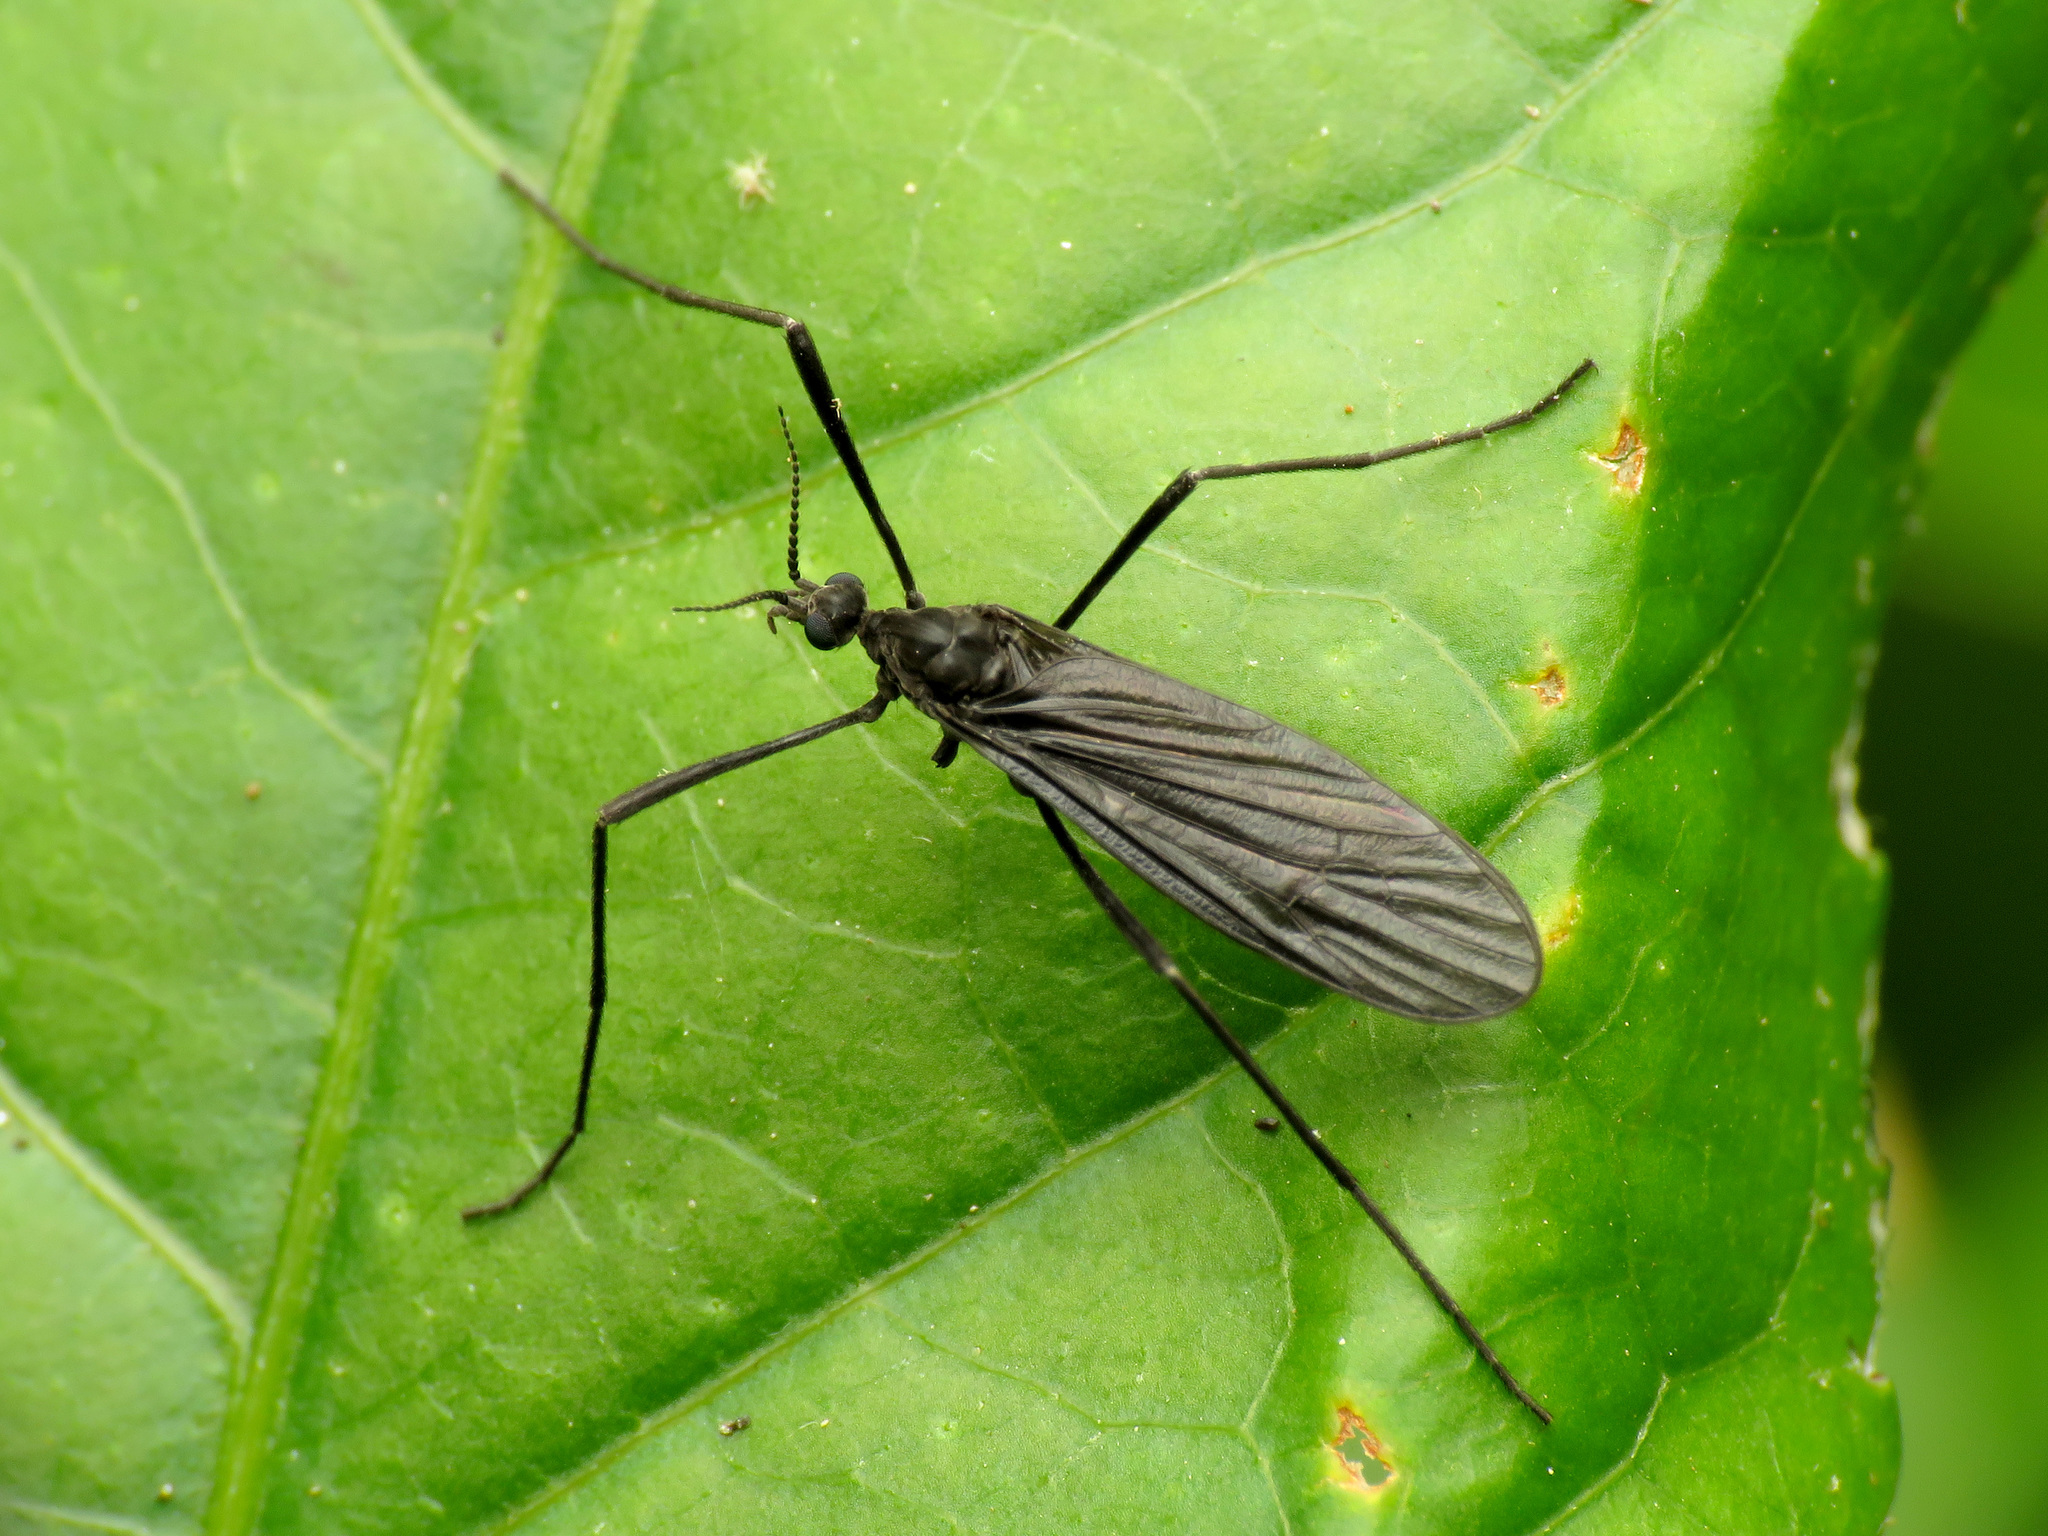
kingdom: Animalia
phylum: Arthropoda
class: Insecta
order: Diptera
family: Limoniidae
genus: Eugnophomyia
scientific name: Eugnophomyia luctuosa
